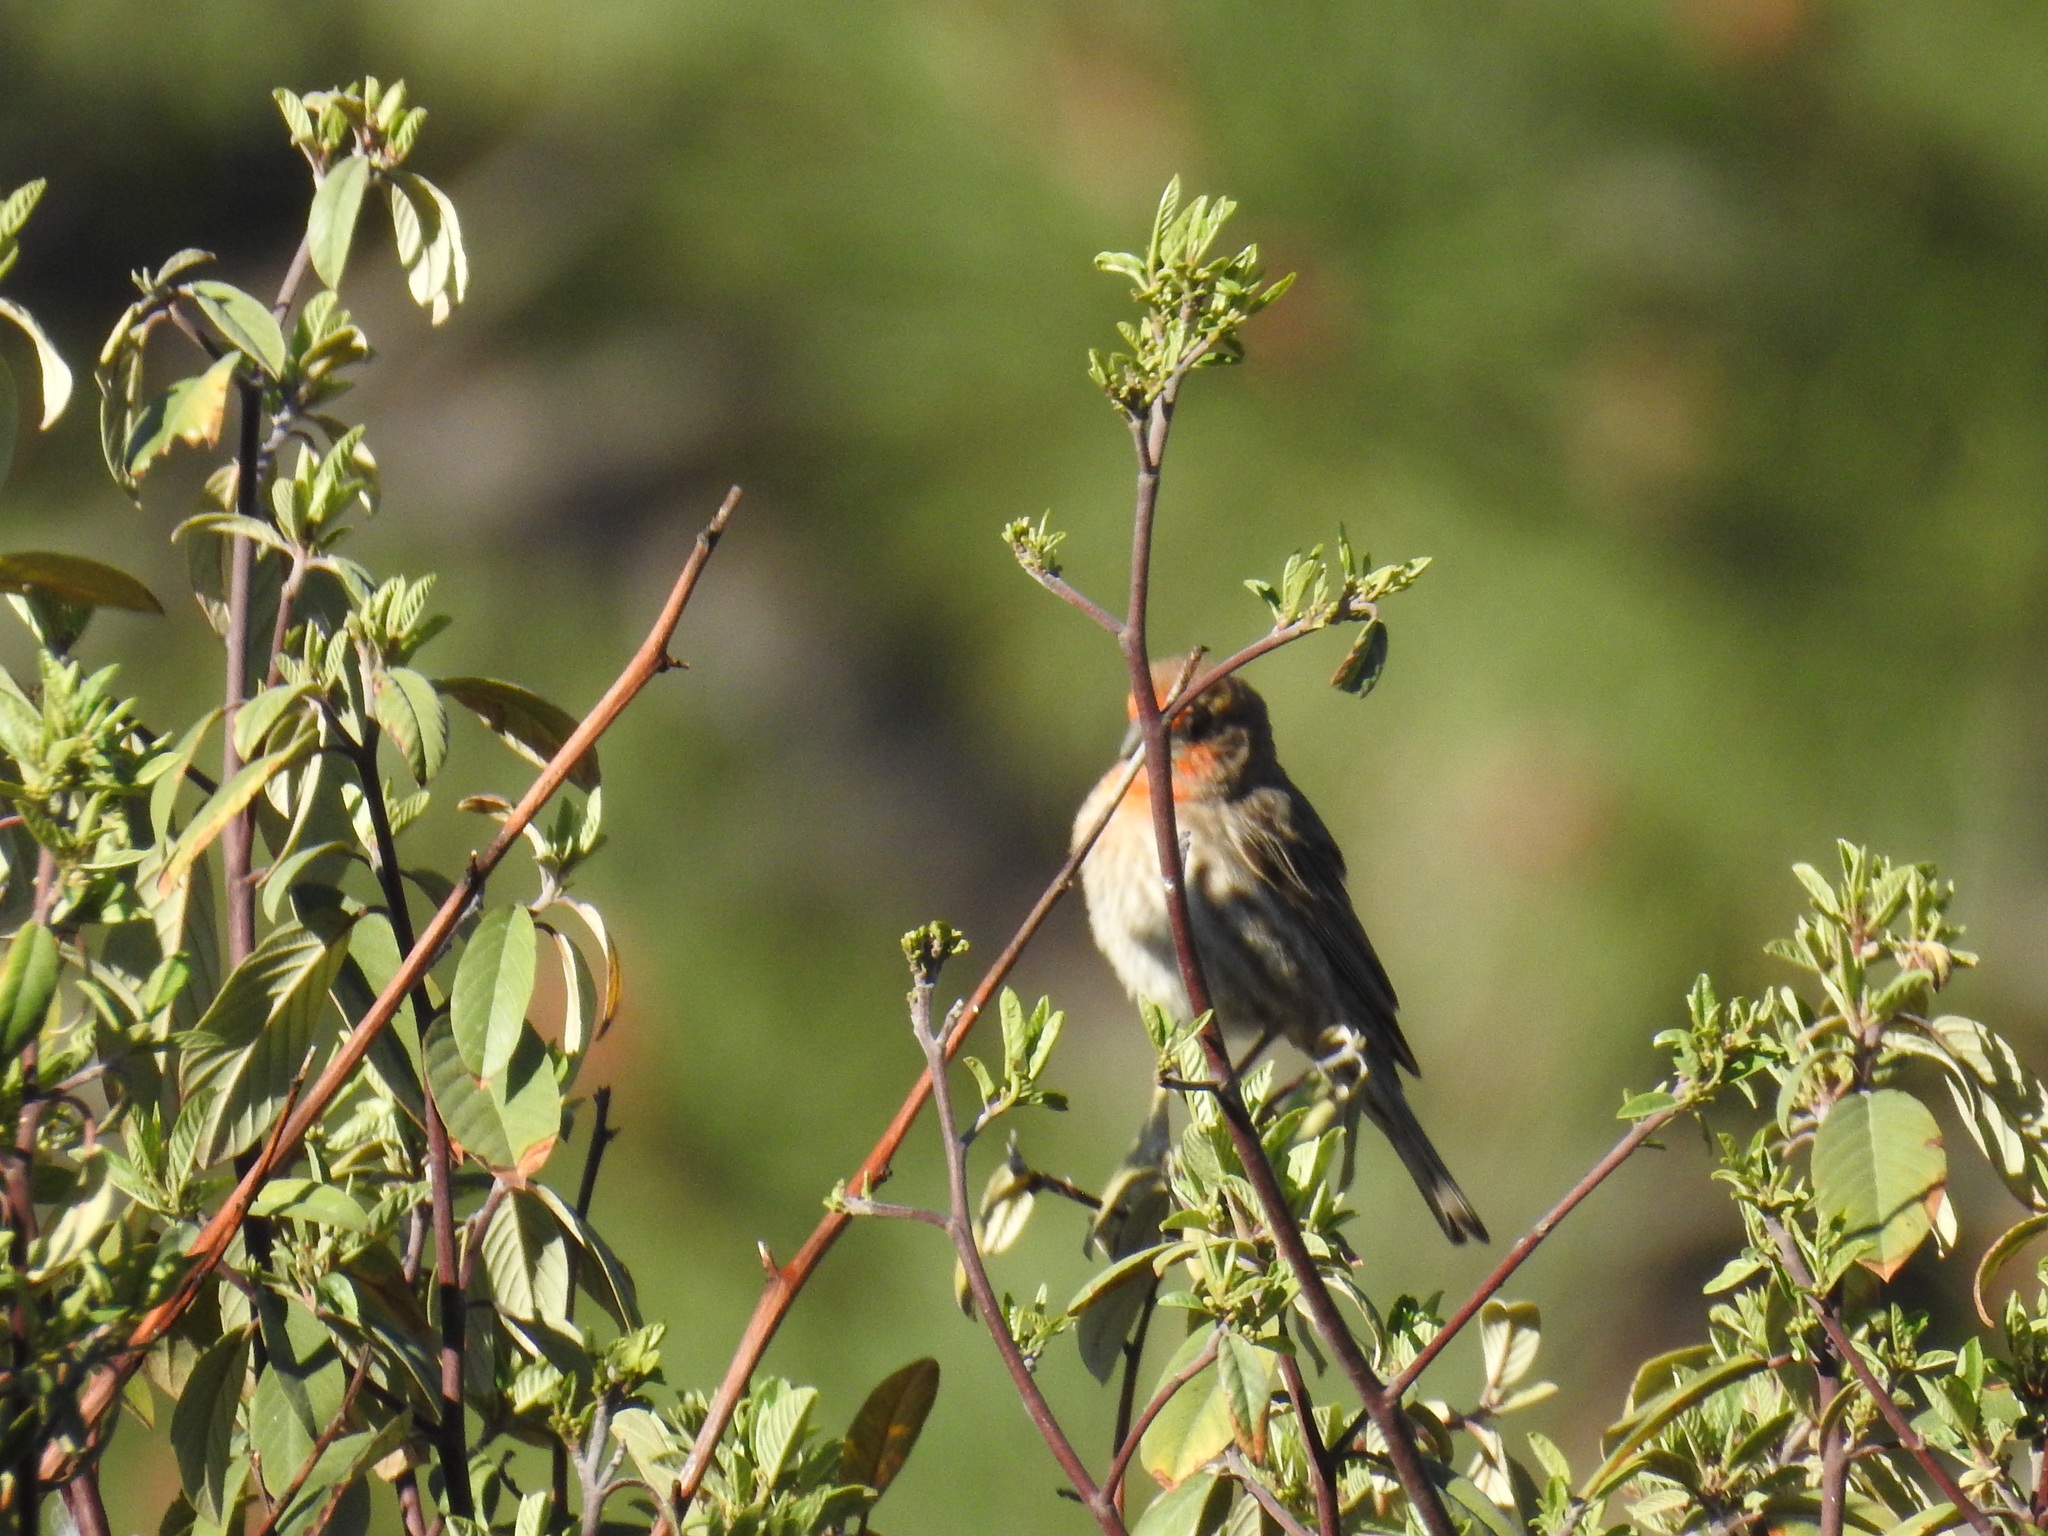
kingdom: Animalia
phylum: Chordata
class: Aves
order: Passeriformes
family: Fringillidae
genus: Haemorhous
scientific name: Haemorhous mexicanus
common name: House finch
